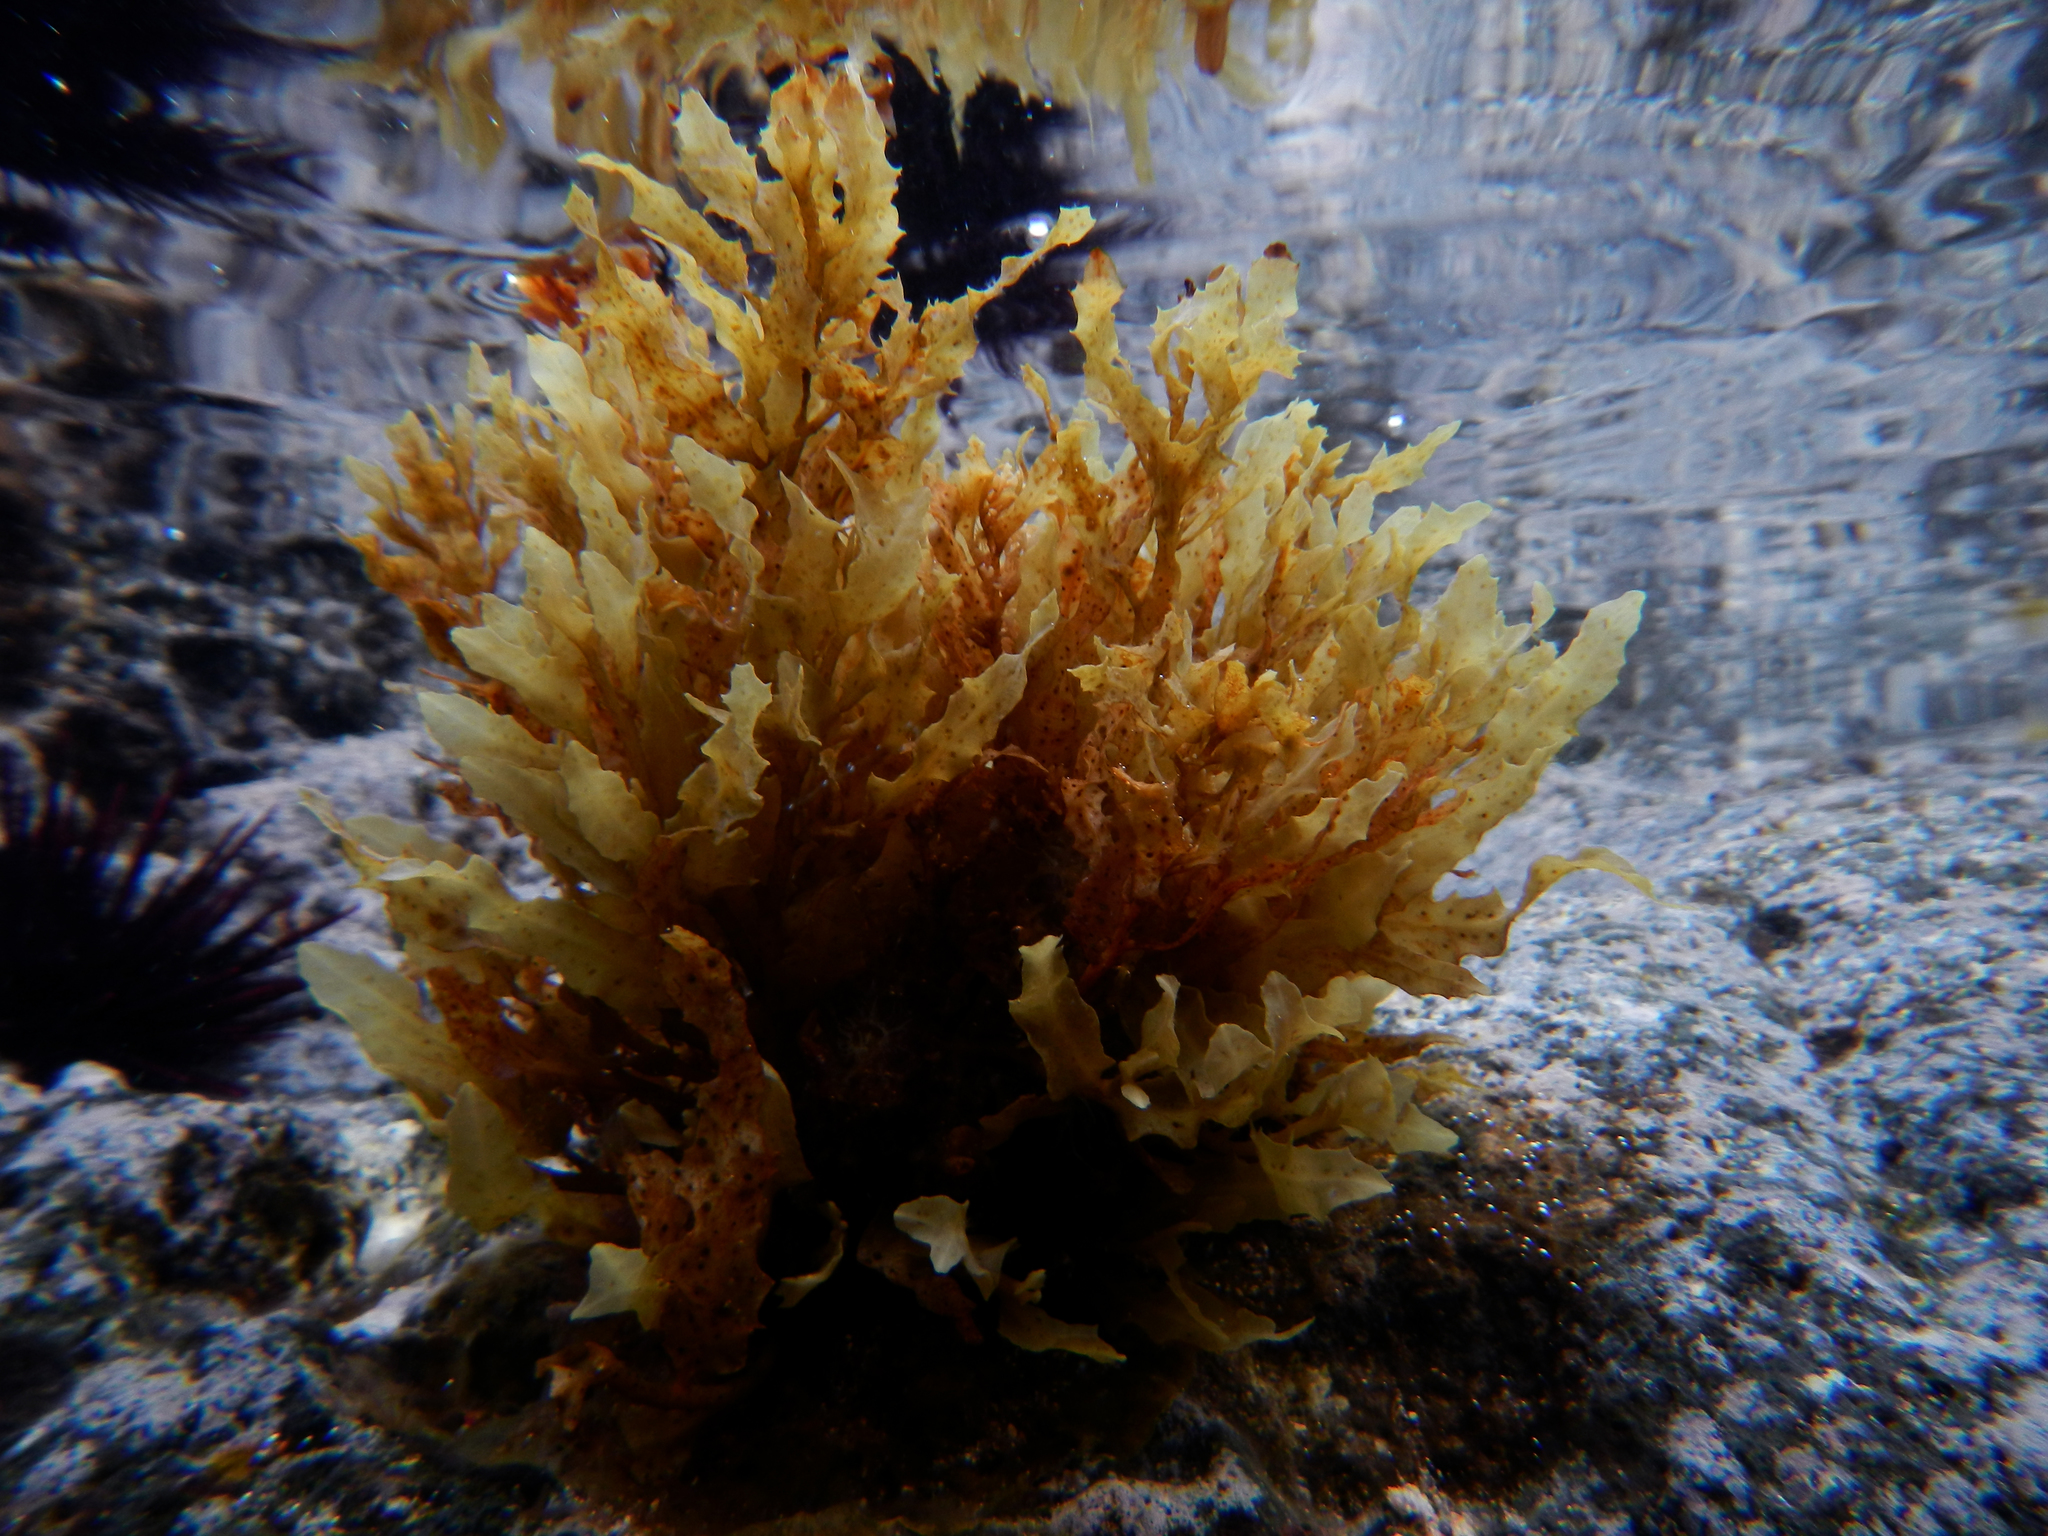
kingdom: Chromista
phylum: Ochrophyta
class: Phaeophyceae
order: Fucales
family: Sargassaceae
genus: Sargassum
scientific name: Sargassum obtusifolium
